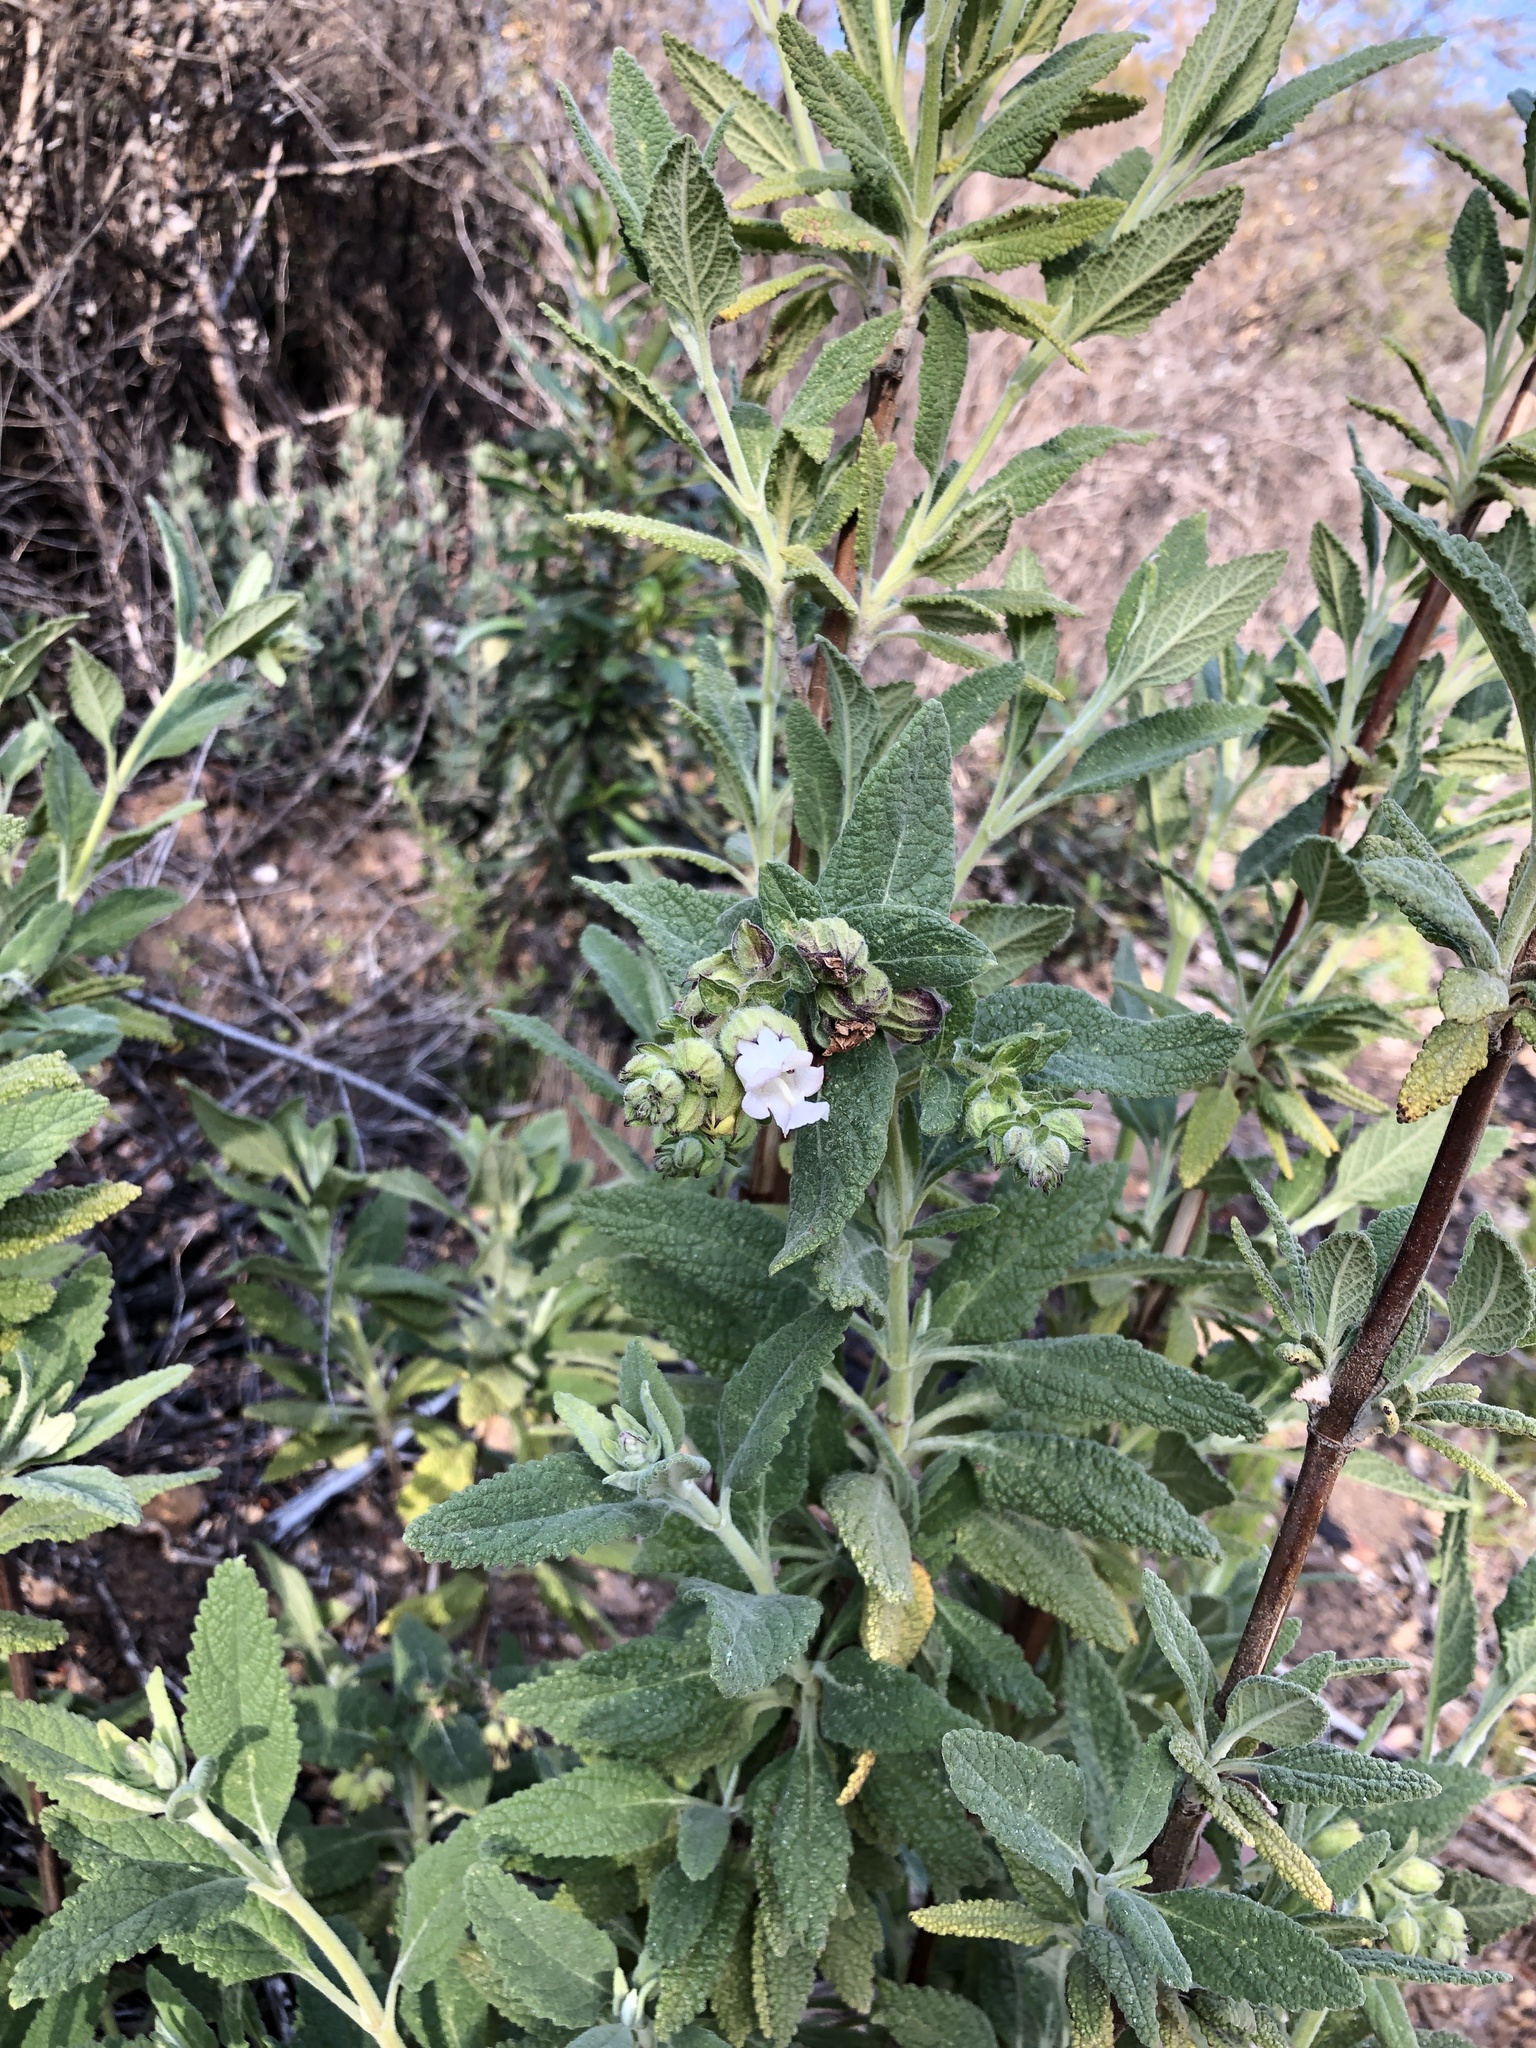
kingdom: Plantae
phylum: Tracheophyta
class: Magnoliopsida
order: Lamiales
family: Lamiaceae
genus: Lepechinia
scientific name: Lepechinia calycina
